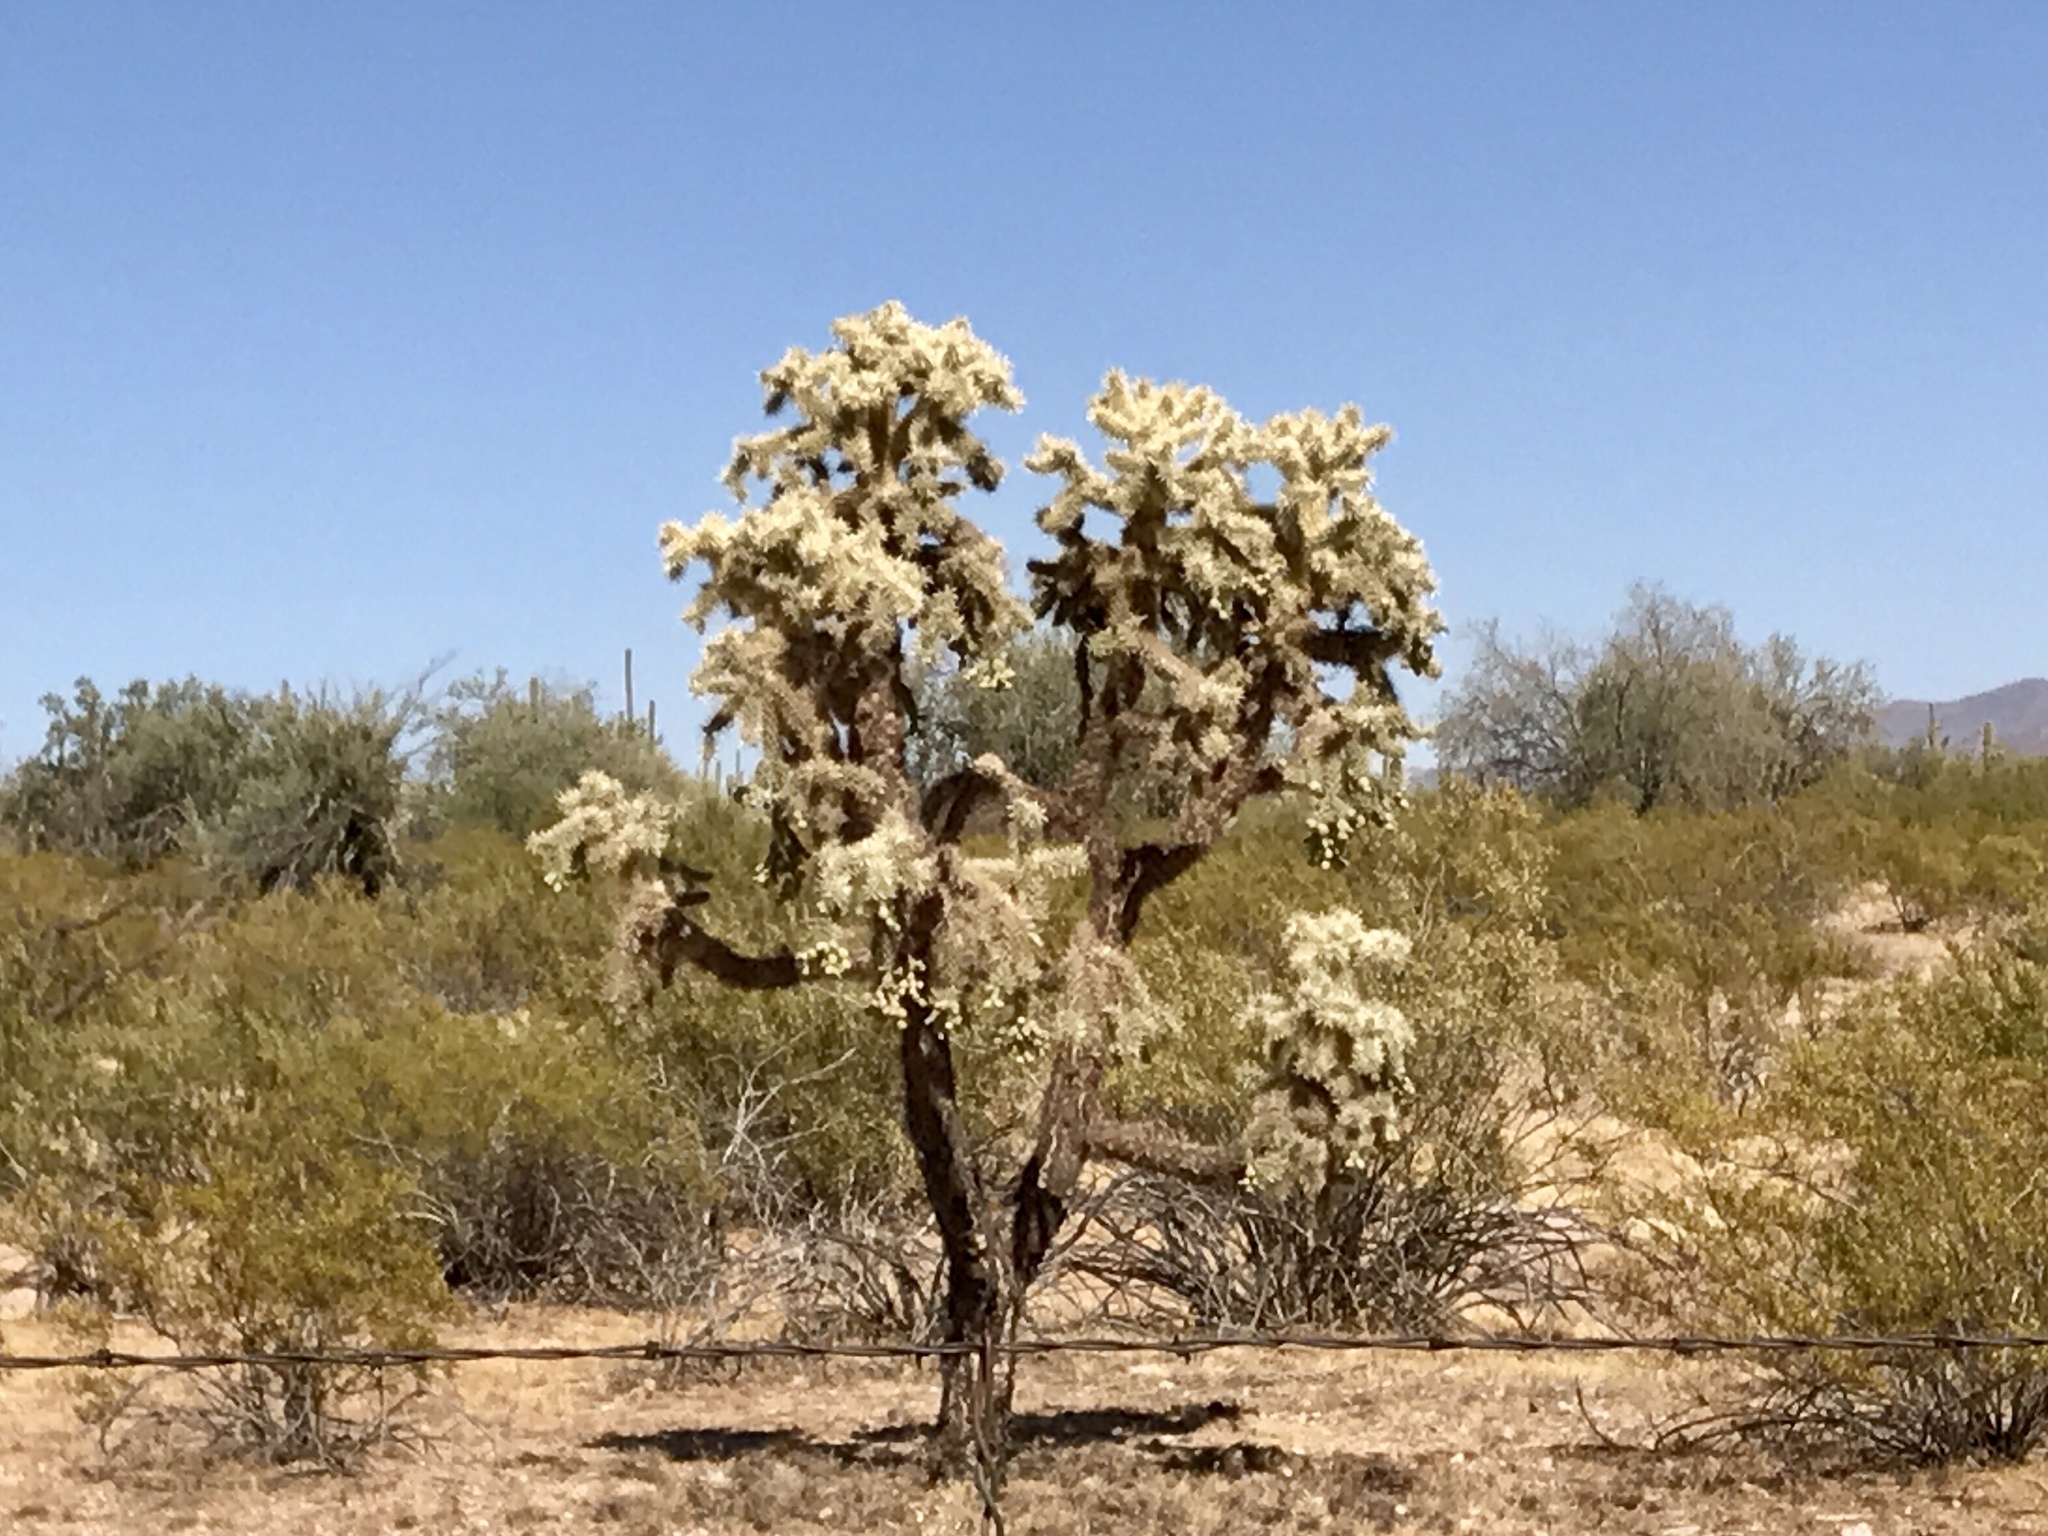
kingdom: Plantae
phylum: Tracheophyta
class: Magnoliopsida
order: Caryophyllales
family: Cactaceae
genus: Cylindropuntia
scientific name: Cylindropuntia fulgida
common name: Jumping cholla
